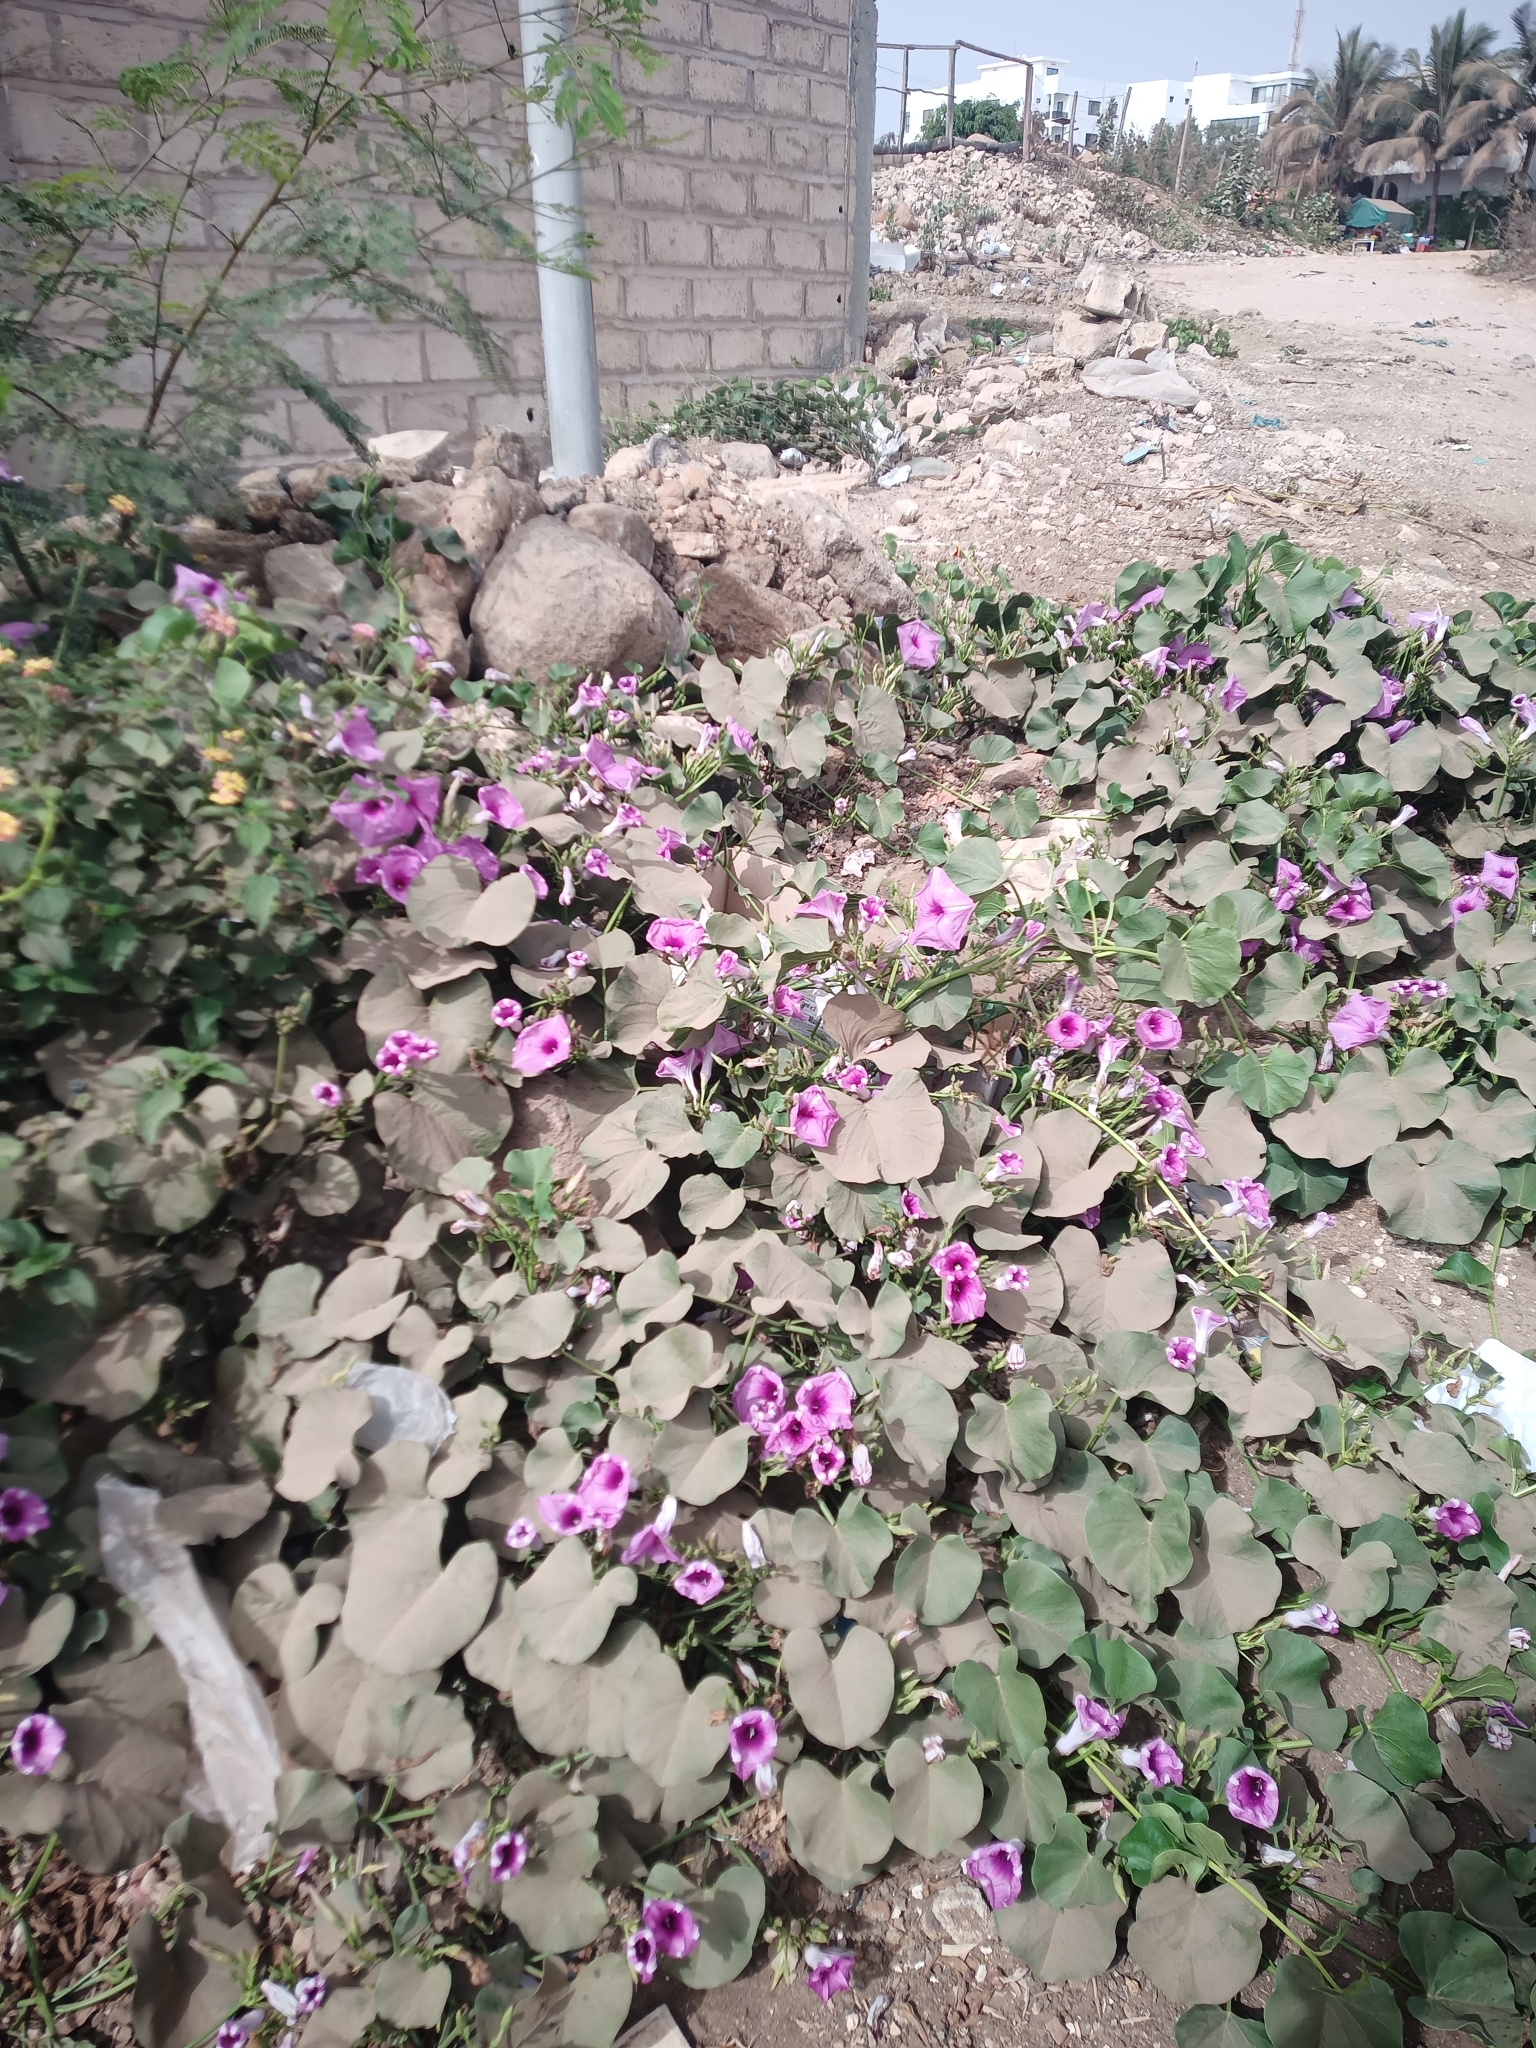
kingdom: Plantae
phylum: Tracheophyta
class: Magnoliopsida
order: Solanales
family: Convolvulaceae
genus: Ipomoea
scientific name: Ipomoea asarifolia
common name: Ginger-leaf morning-glory
